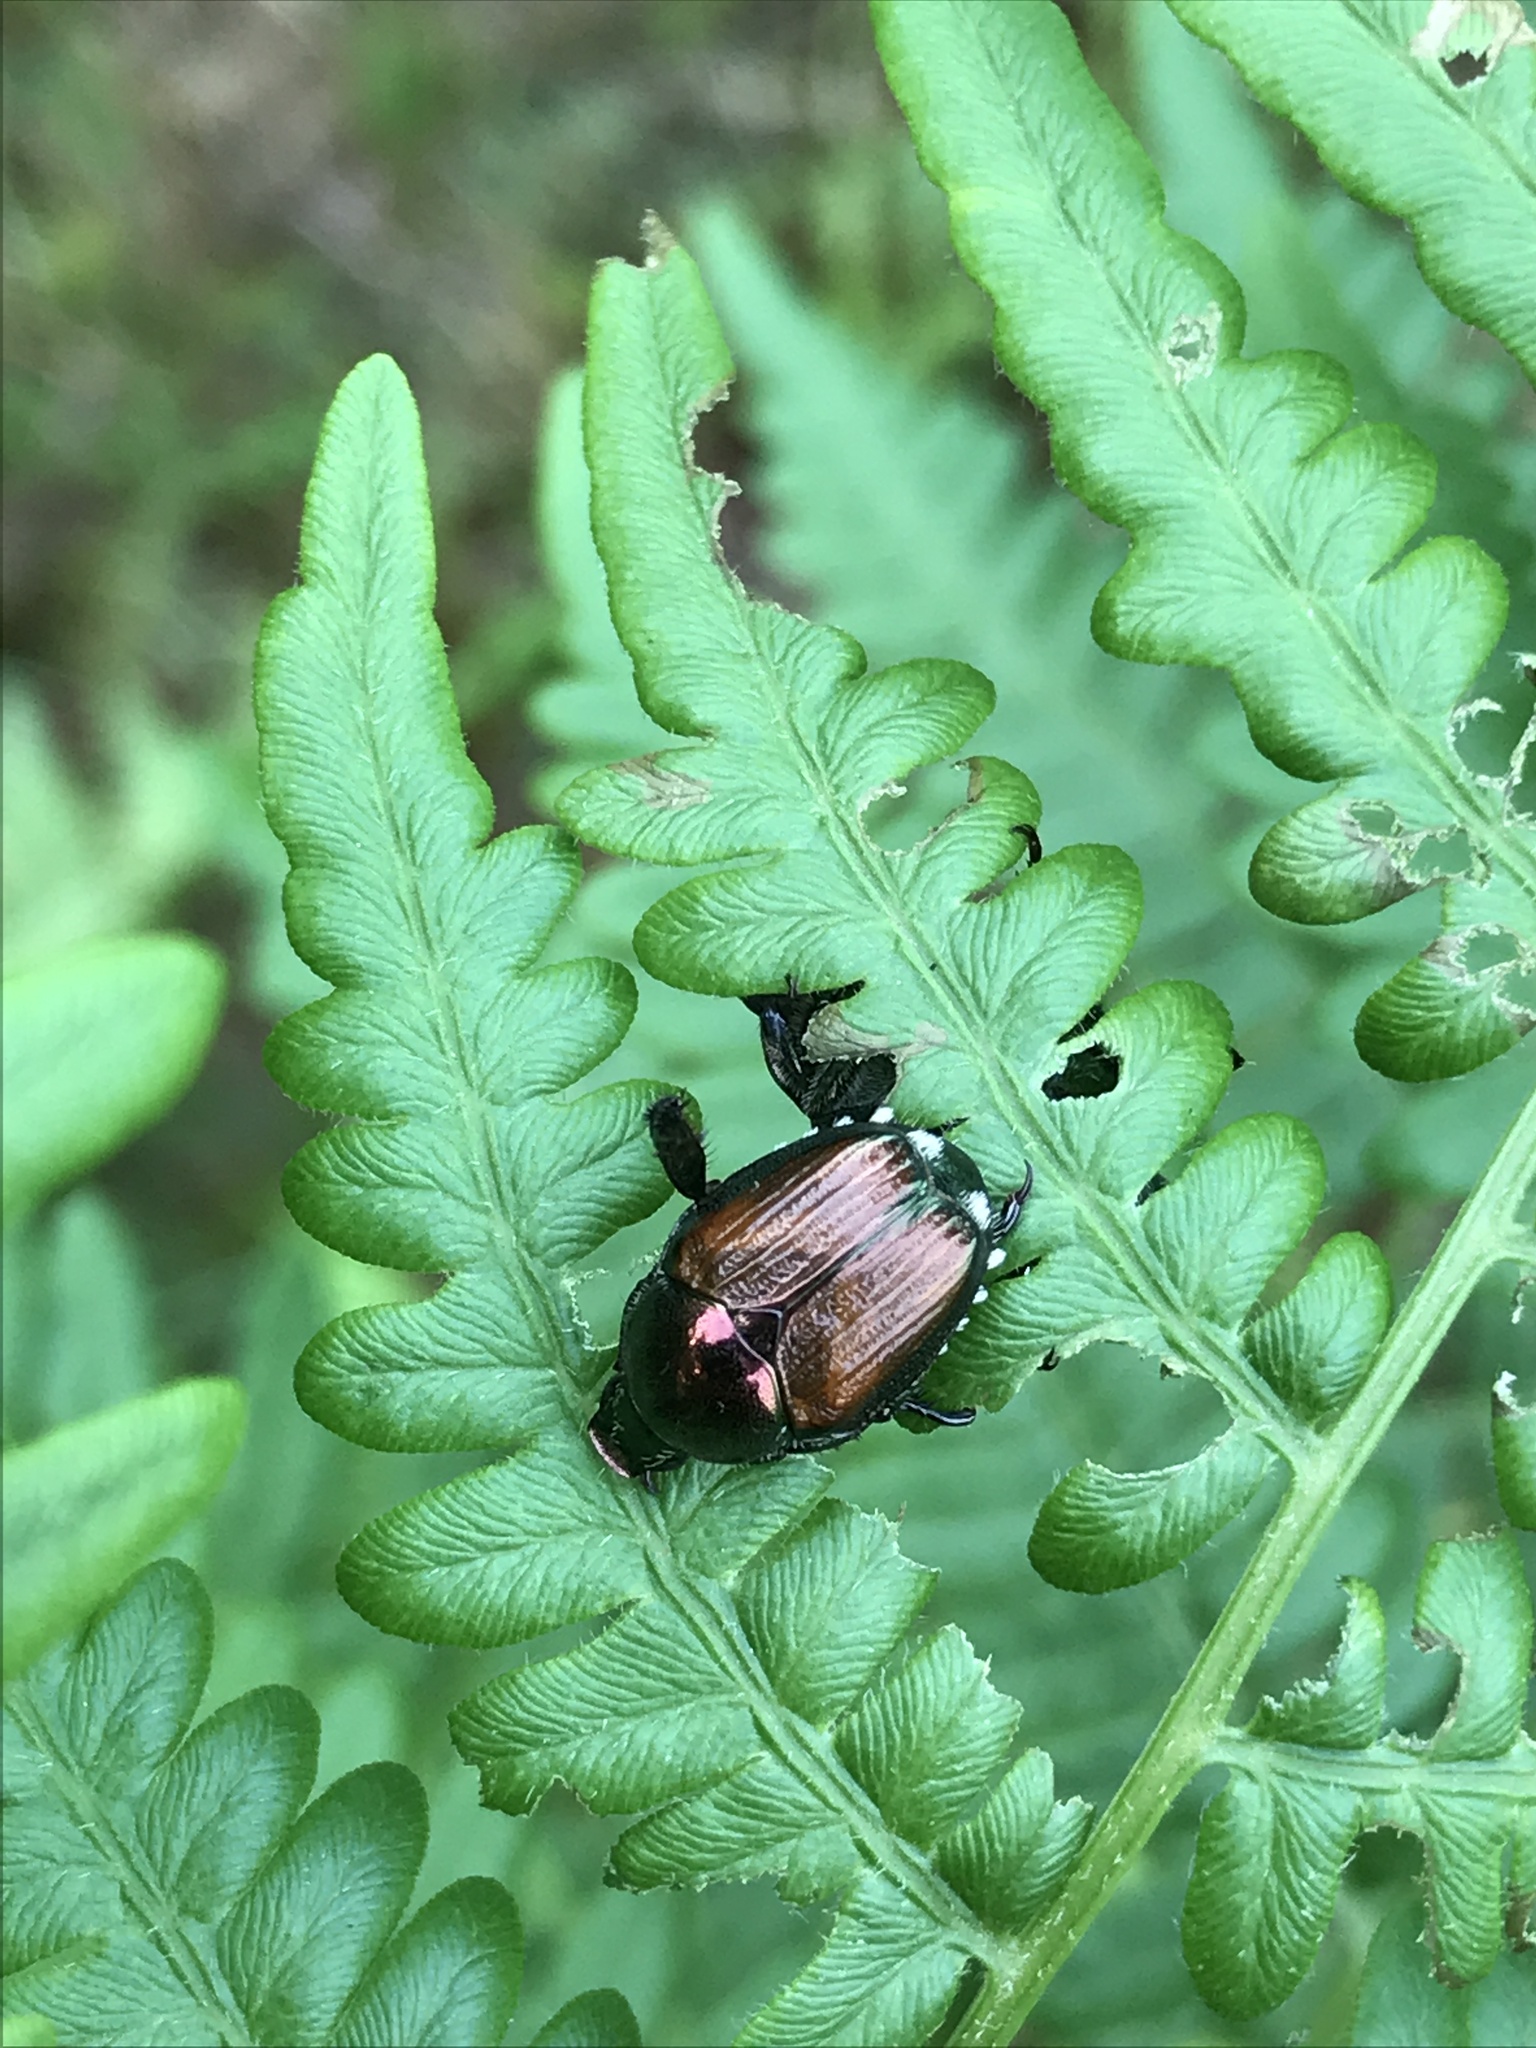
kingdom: Animalia
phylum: Arthropoda
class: Insecta
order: Coleoptera
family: Scarabaeidae
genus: Popillia
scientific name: Popillia japonica
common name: Japanese beetle
